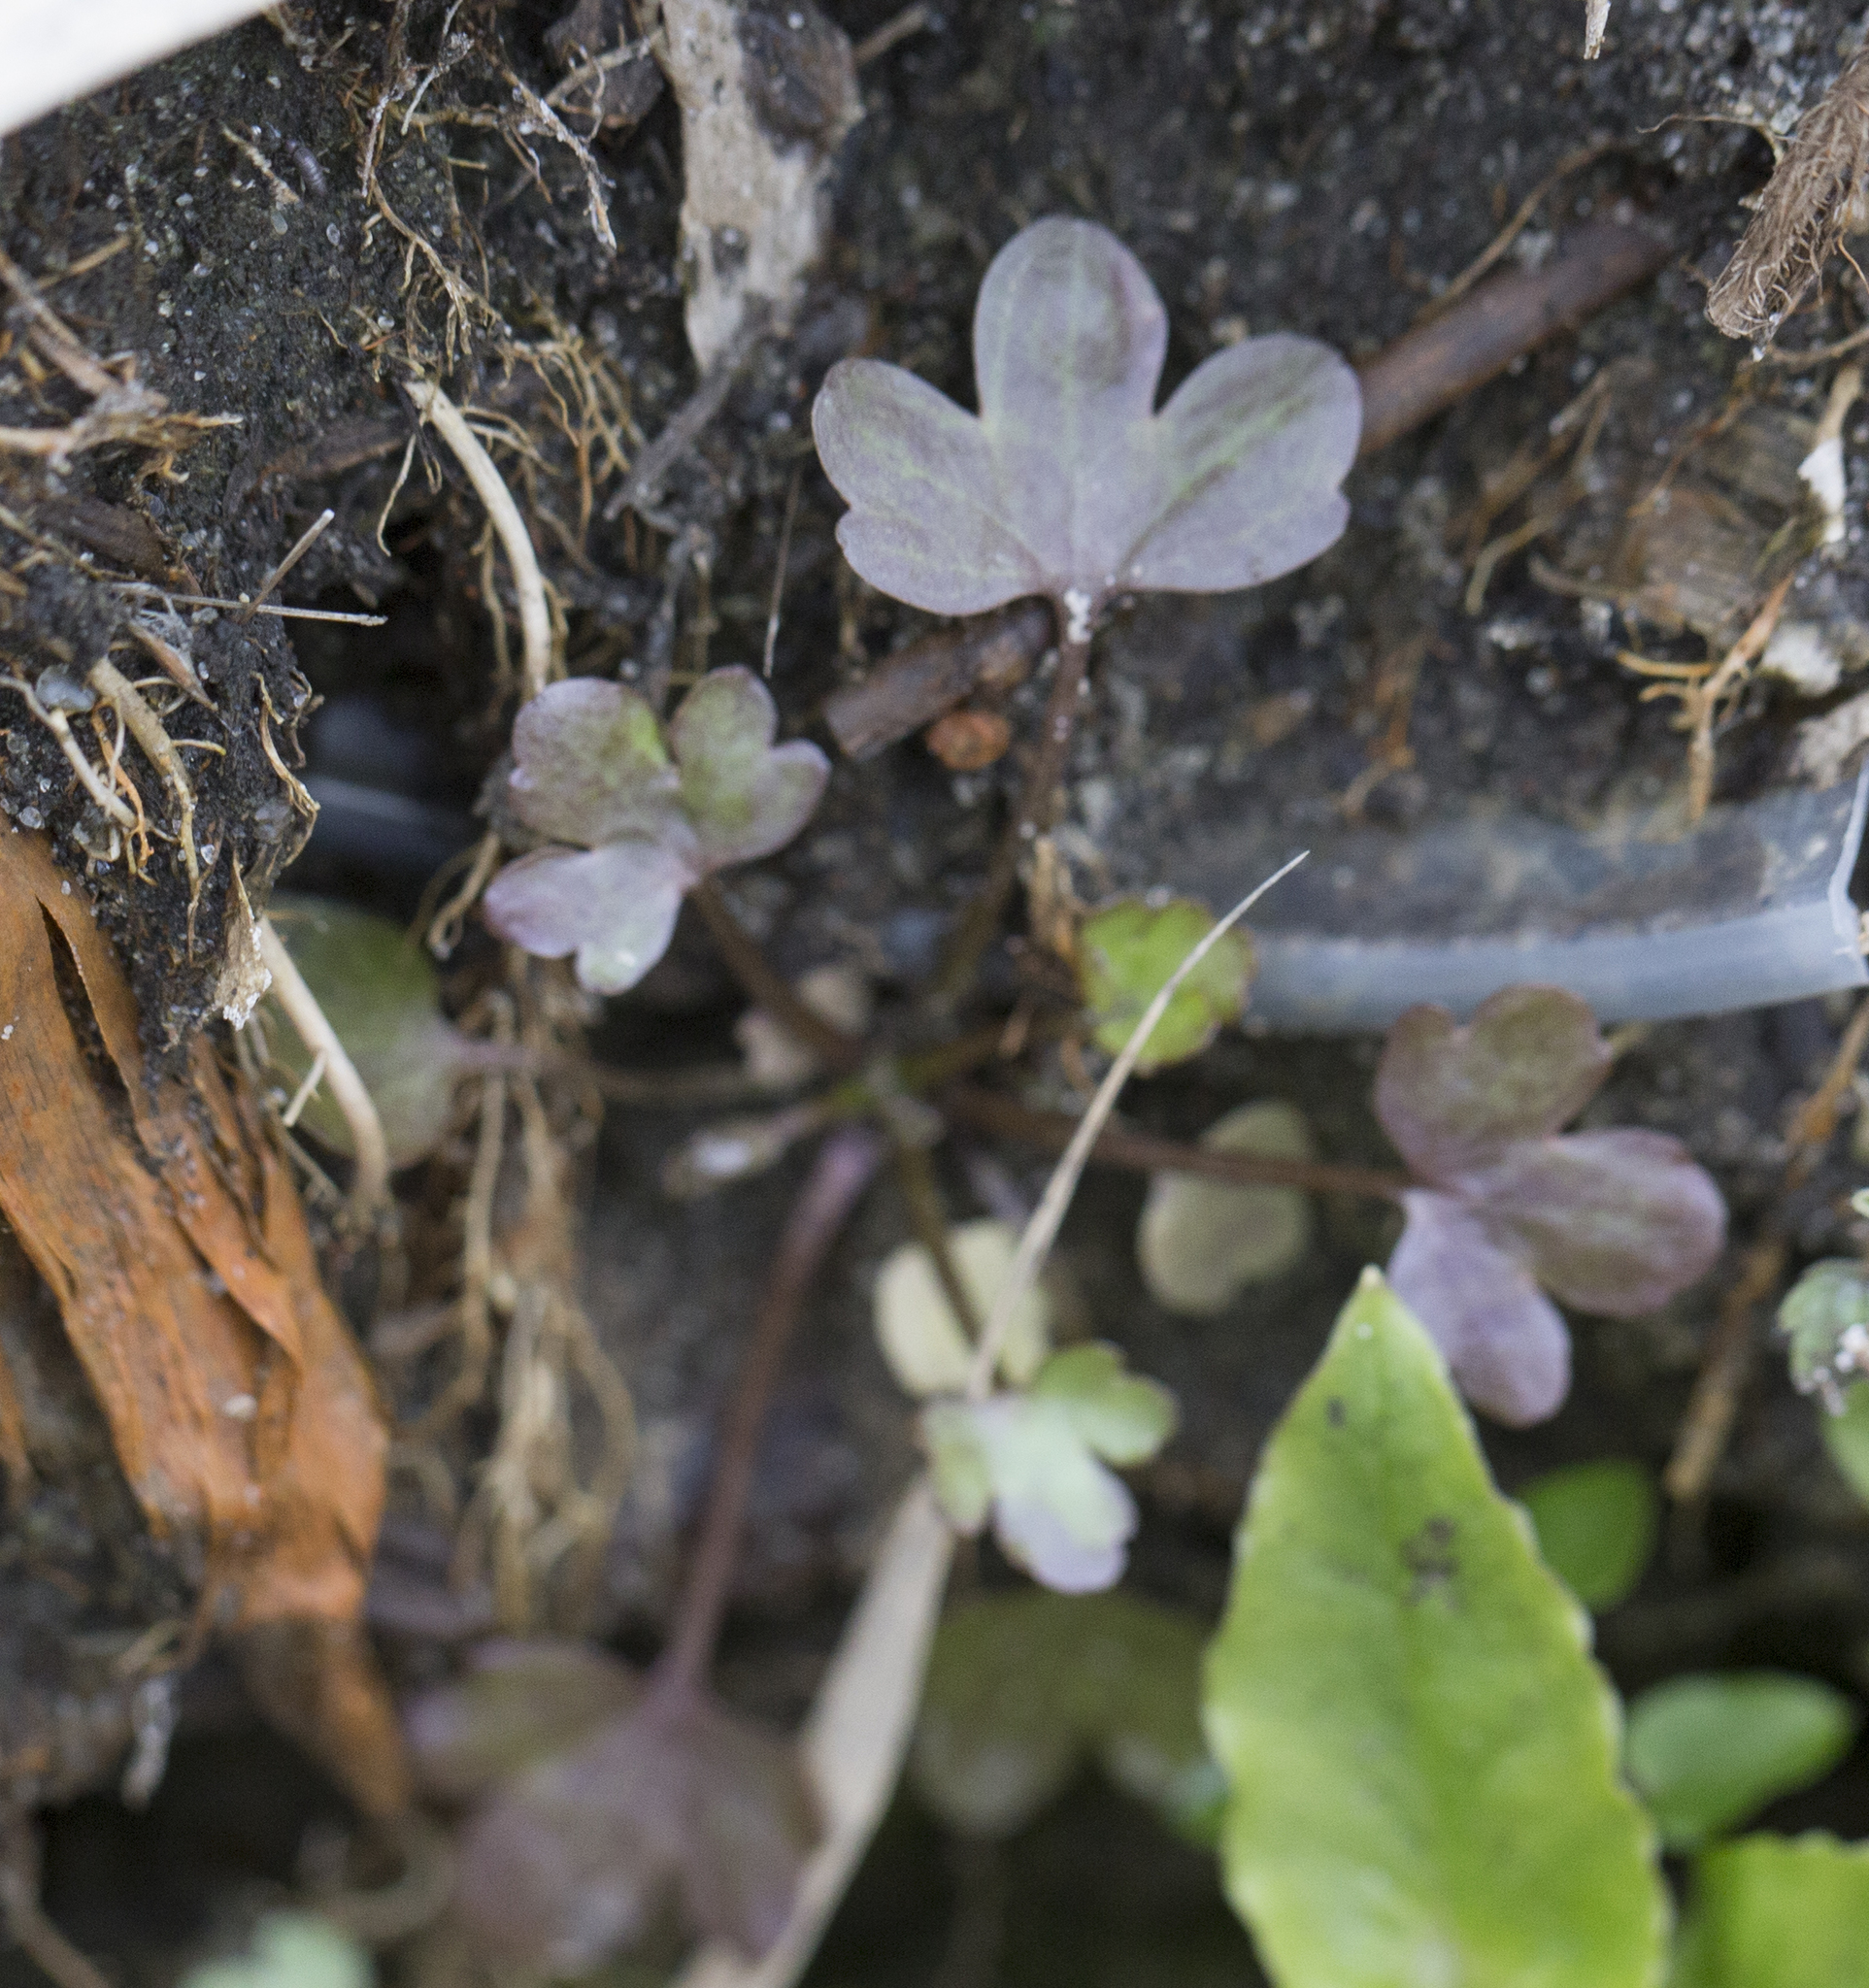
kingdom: Plantae
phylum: Tracheophyta
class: Magnoliopsida
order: Ranunculales
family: Ranunculaceae
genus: Ranunculus
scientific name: Ranunculus sceleratus
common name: Celery-leaved buttercup
